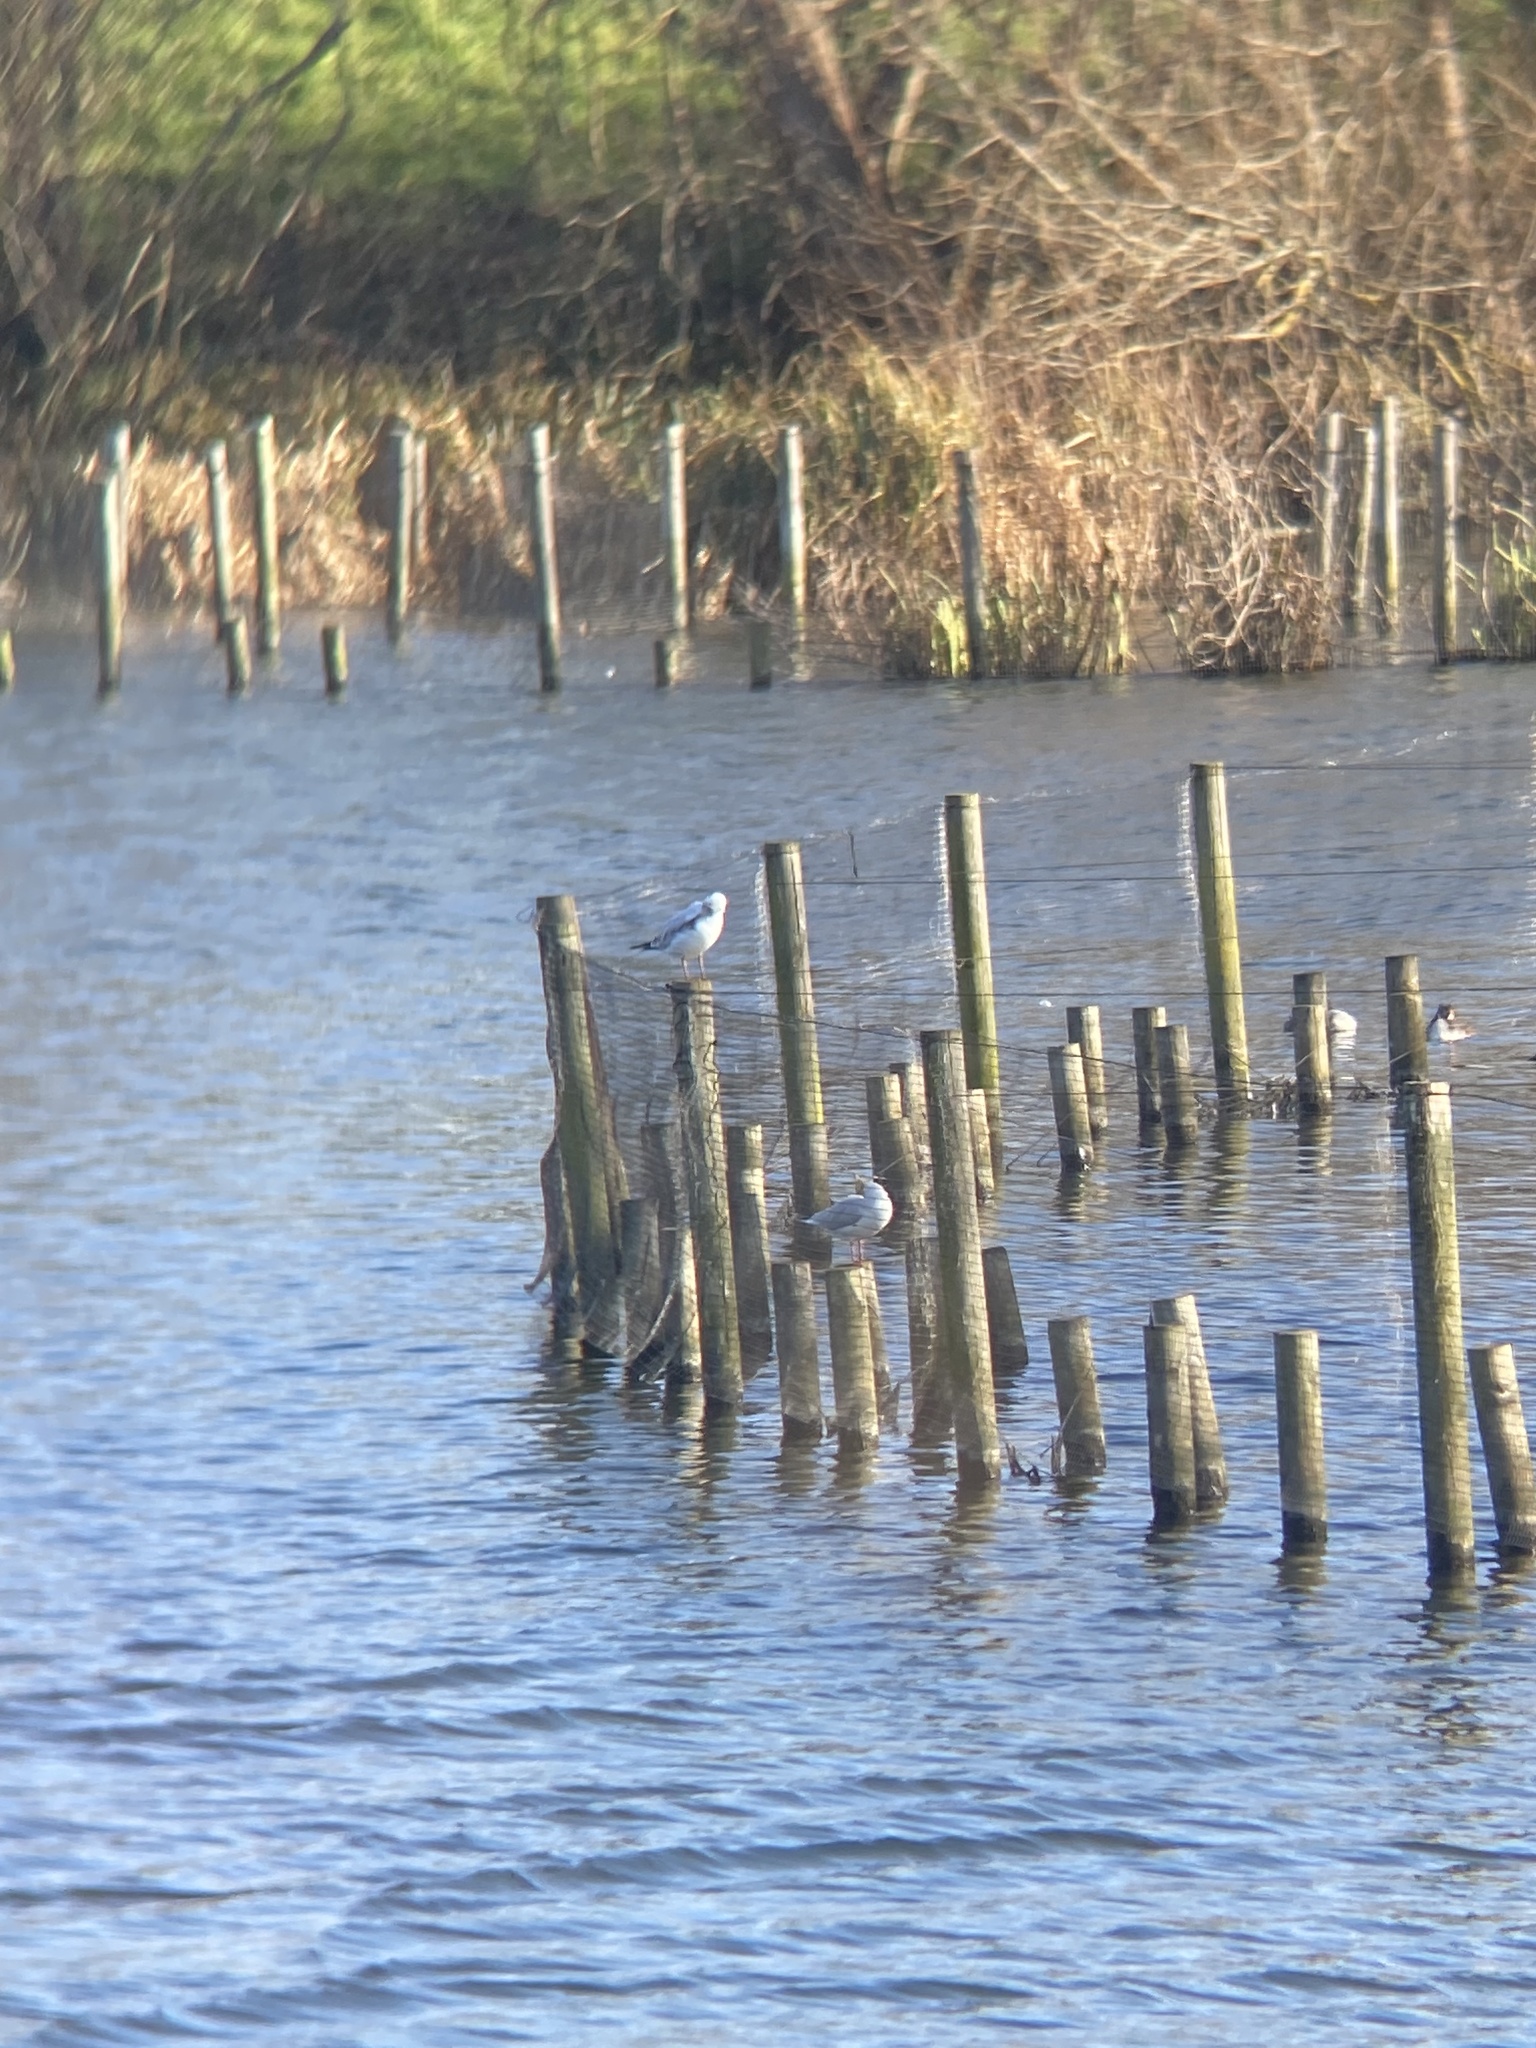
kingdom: Animalia
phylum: Chordata
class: Aves
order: Charadriiformes
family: Laridae
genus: Chroicocephalus
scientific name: Chroicocephalus ridibundus
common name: Black-headed gull
